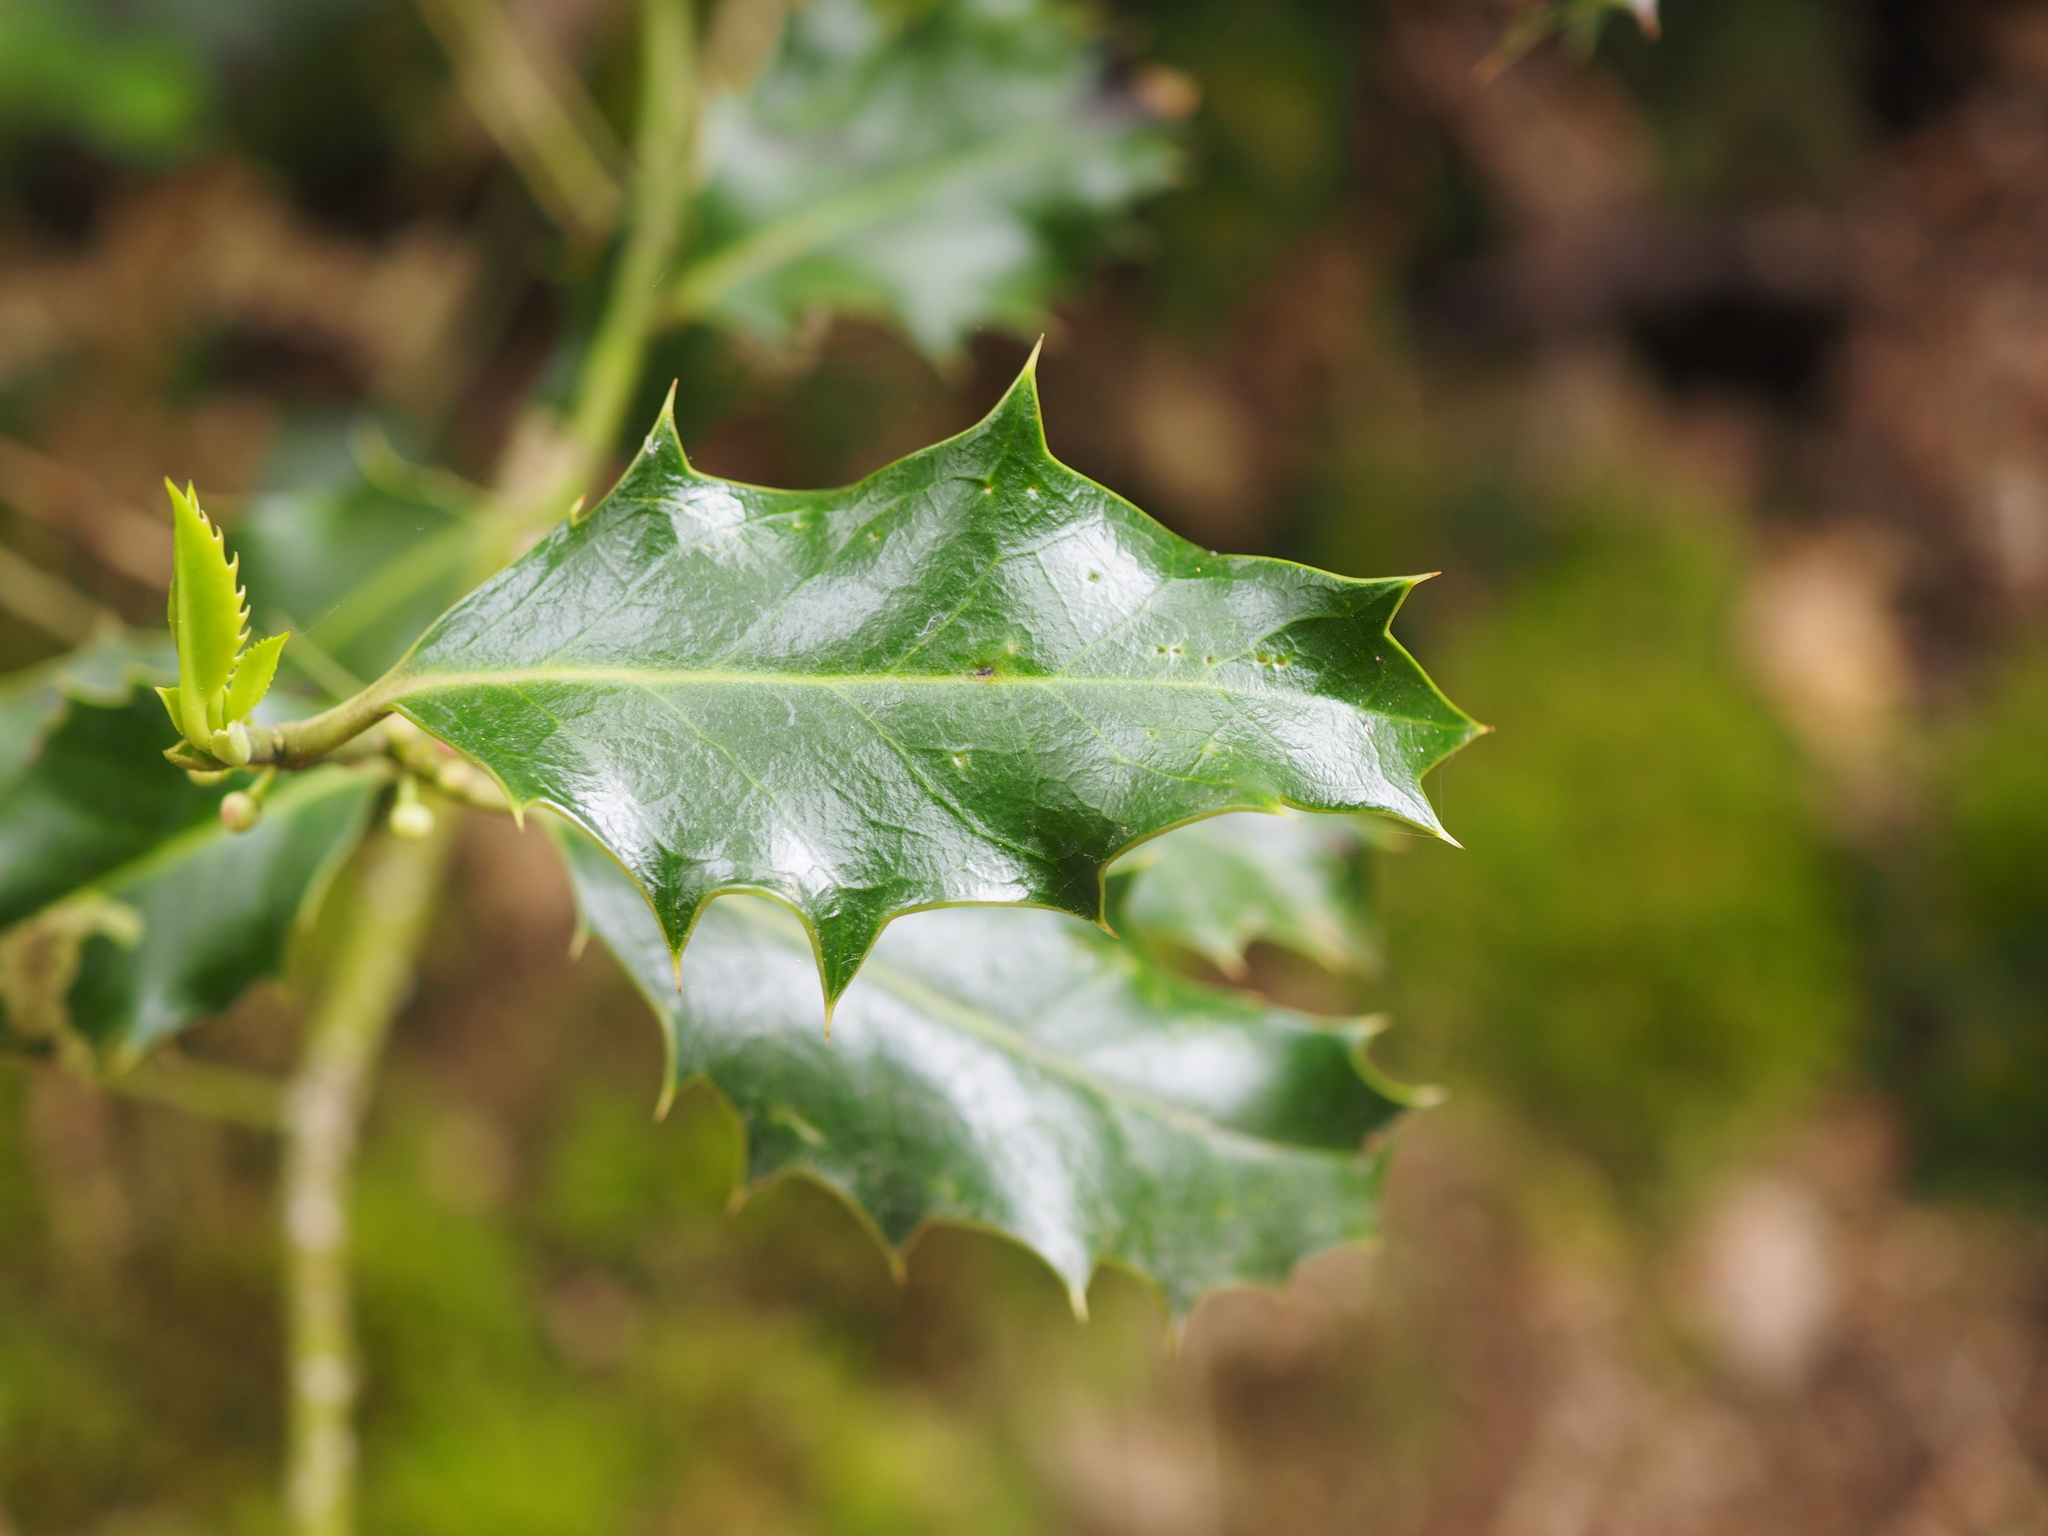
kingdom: Plantae
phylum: Tracheophyta
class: Magnoliopsida
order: Aquifoliales
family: Aquifoliaceae
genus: Ilex
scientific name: Ilex aquifolium
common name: English holly
